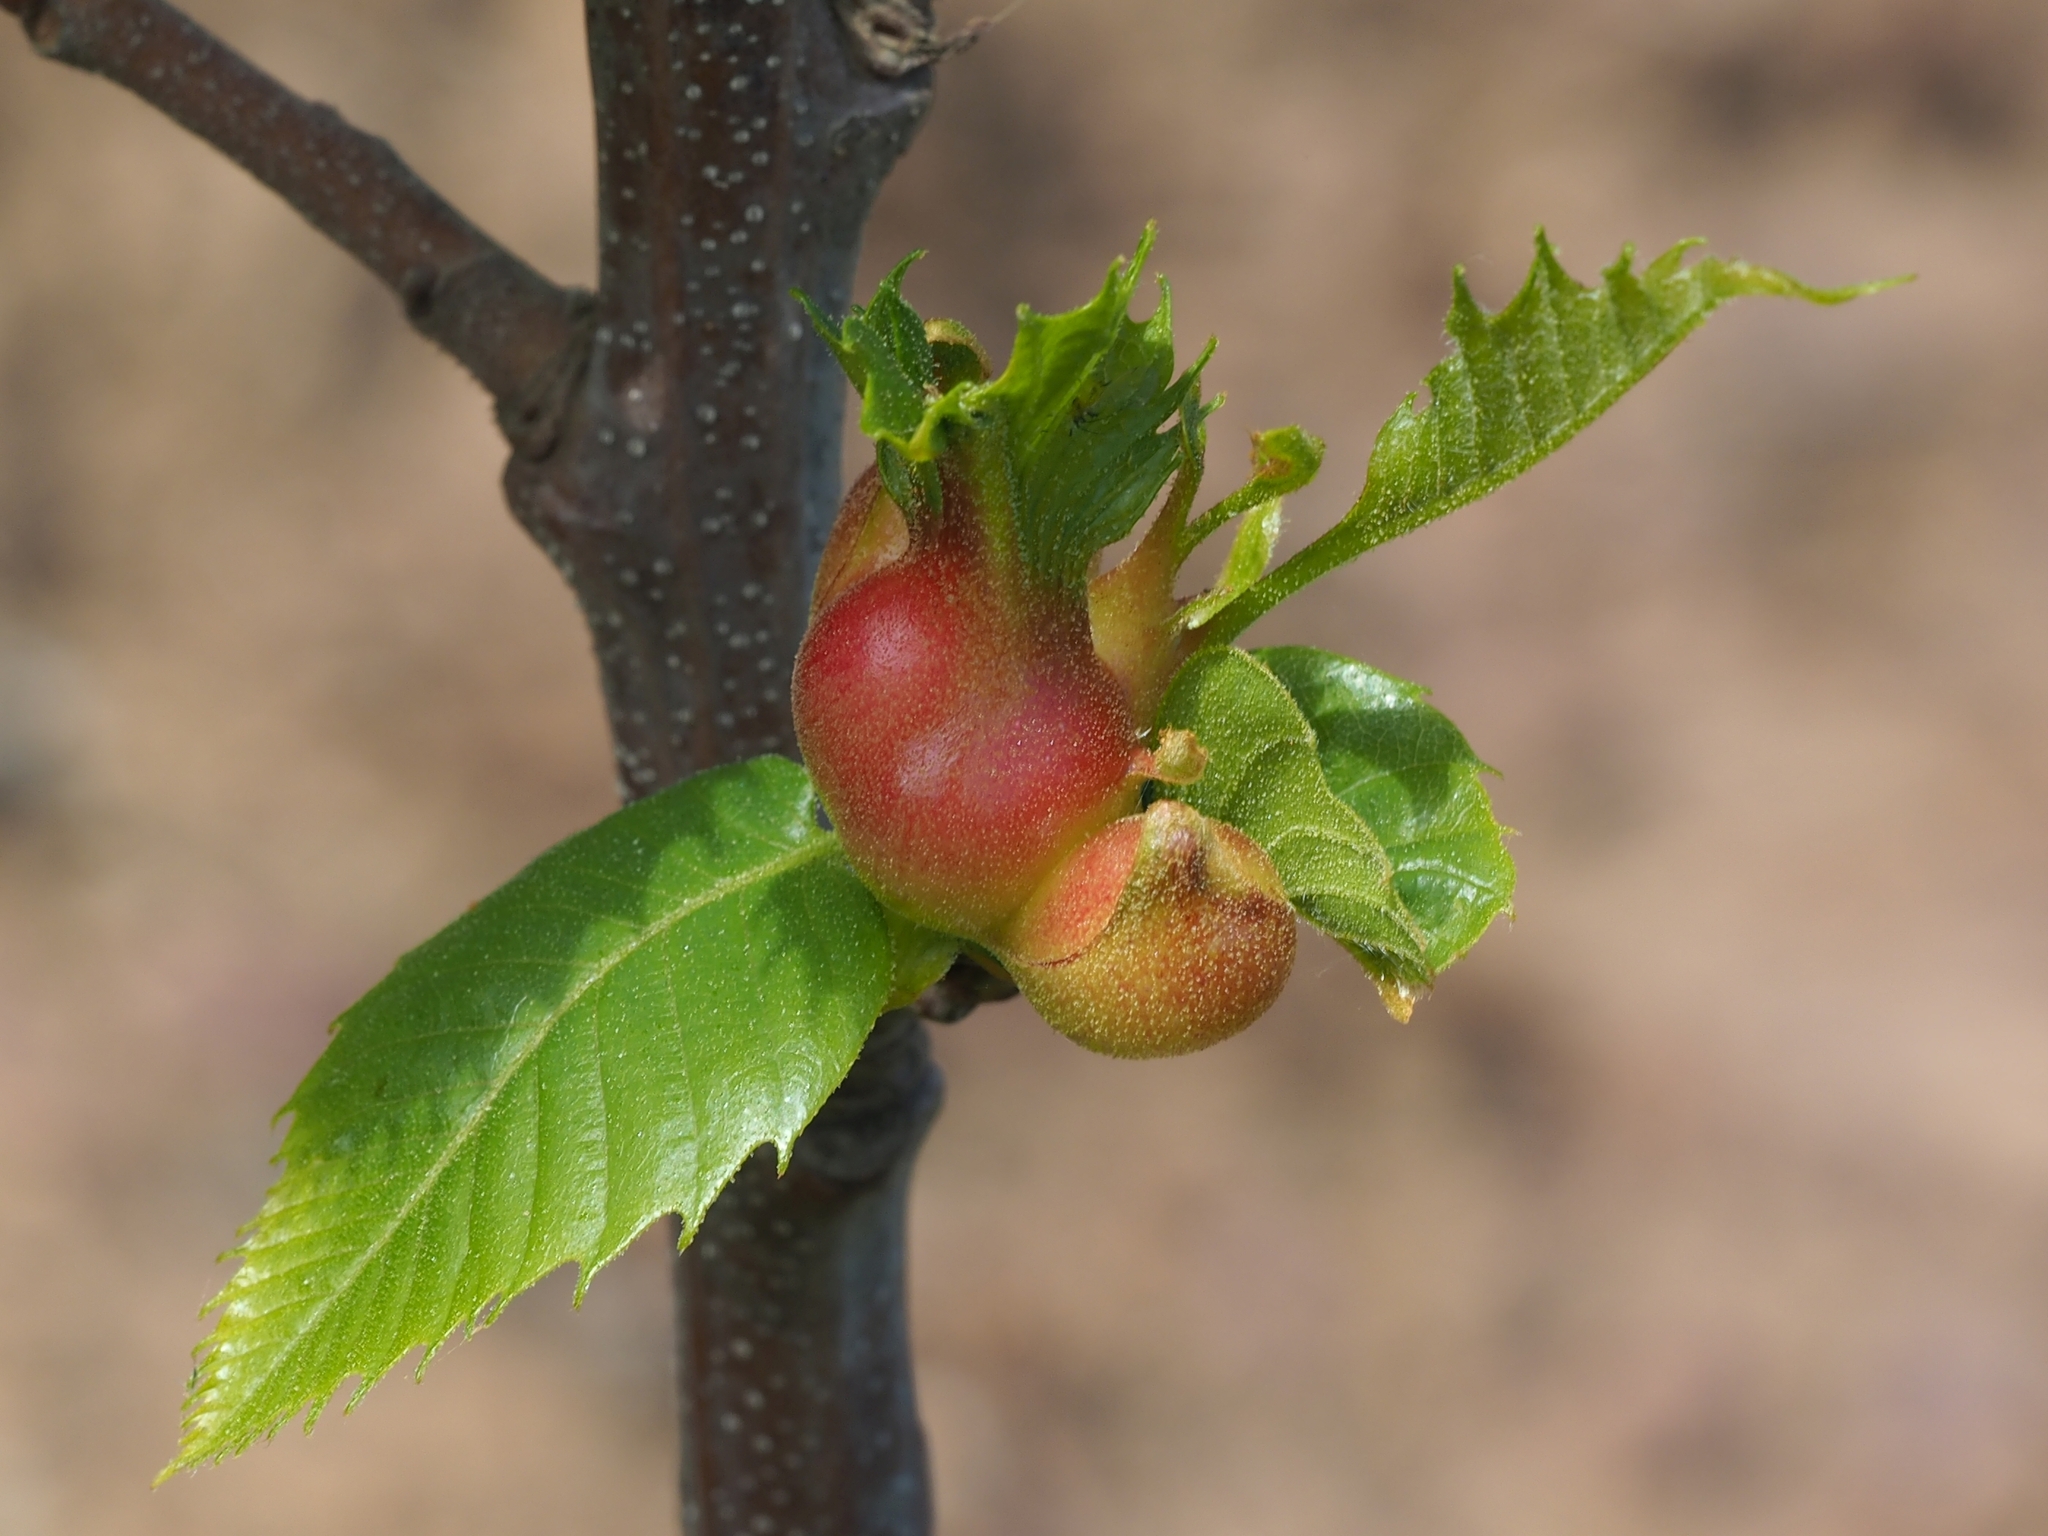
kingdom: Animalia
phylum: Arthropoda
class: Insecta
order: Hymenoptera
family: Cynipidae
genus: Dryocosmus
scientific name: Dryocosmus kuriphilus
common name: Asian chestnut gall wasp
